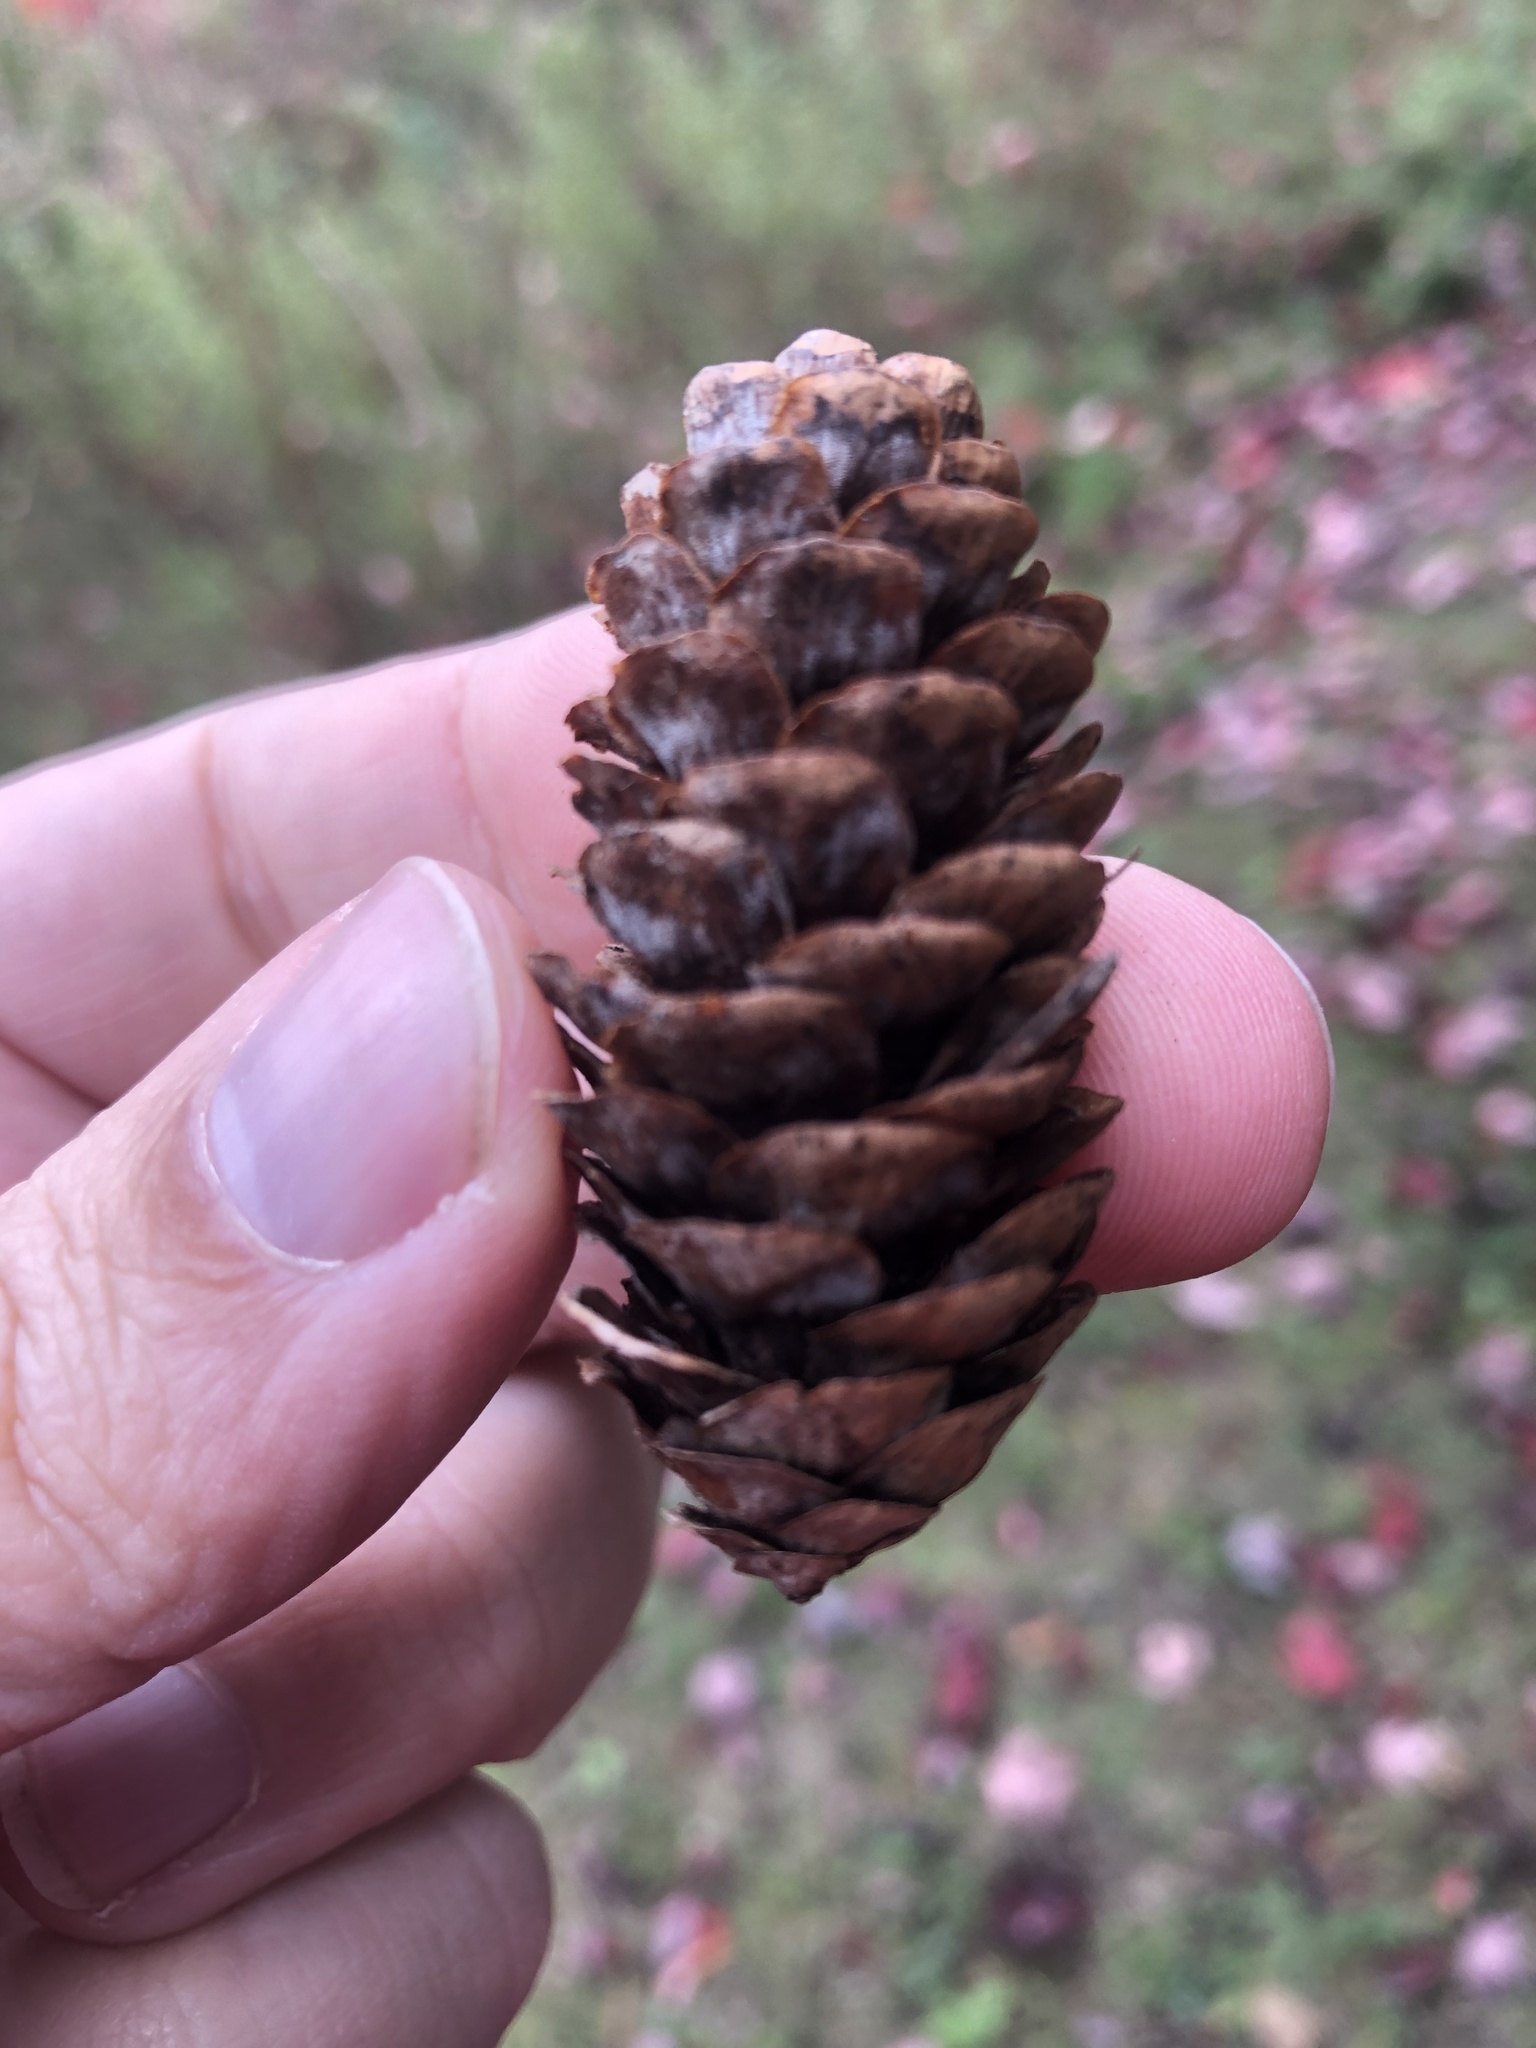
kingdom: Plantae
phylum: Tracheophyta
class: Pinopsida
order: Pinales
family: Pinaceae
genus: Picea
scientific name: Picea glauca
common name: White spruce
